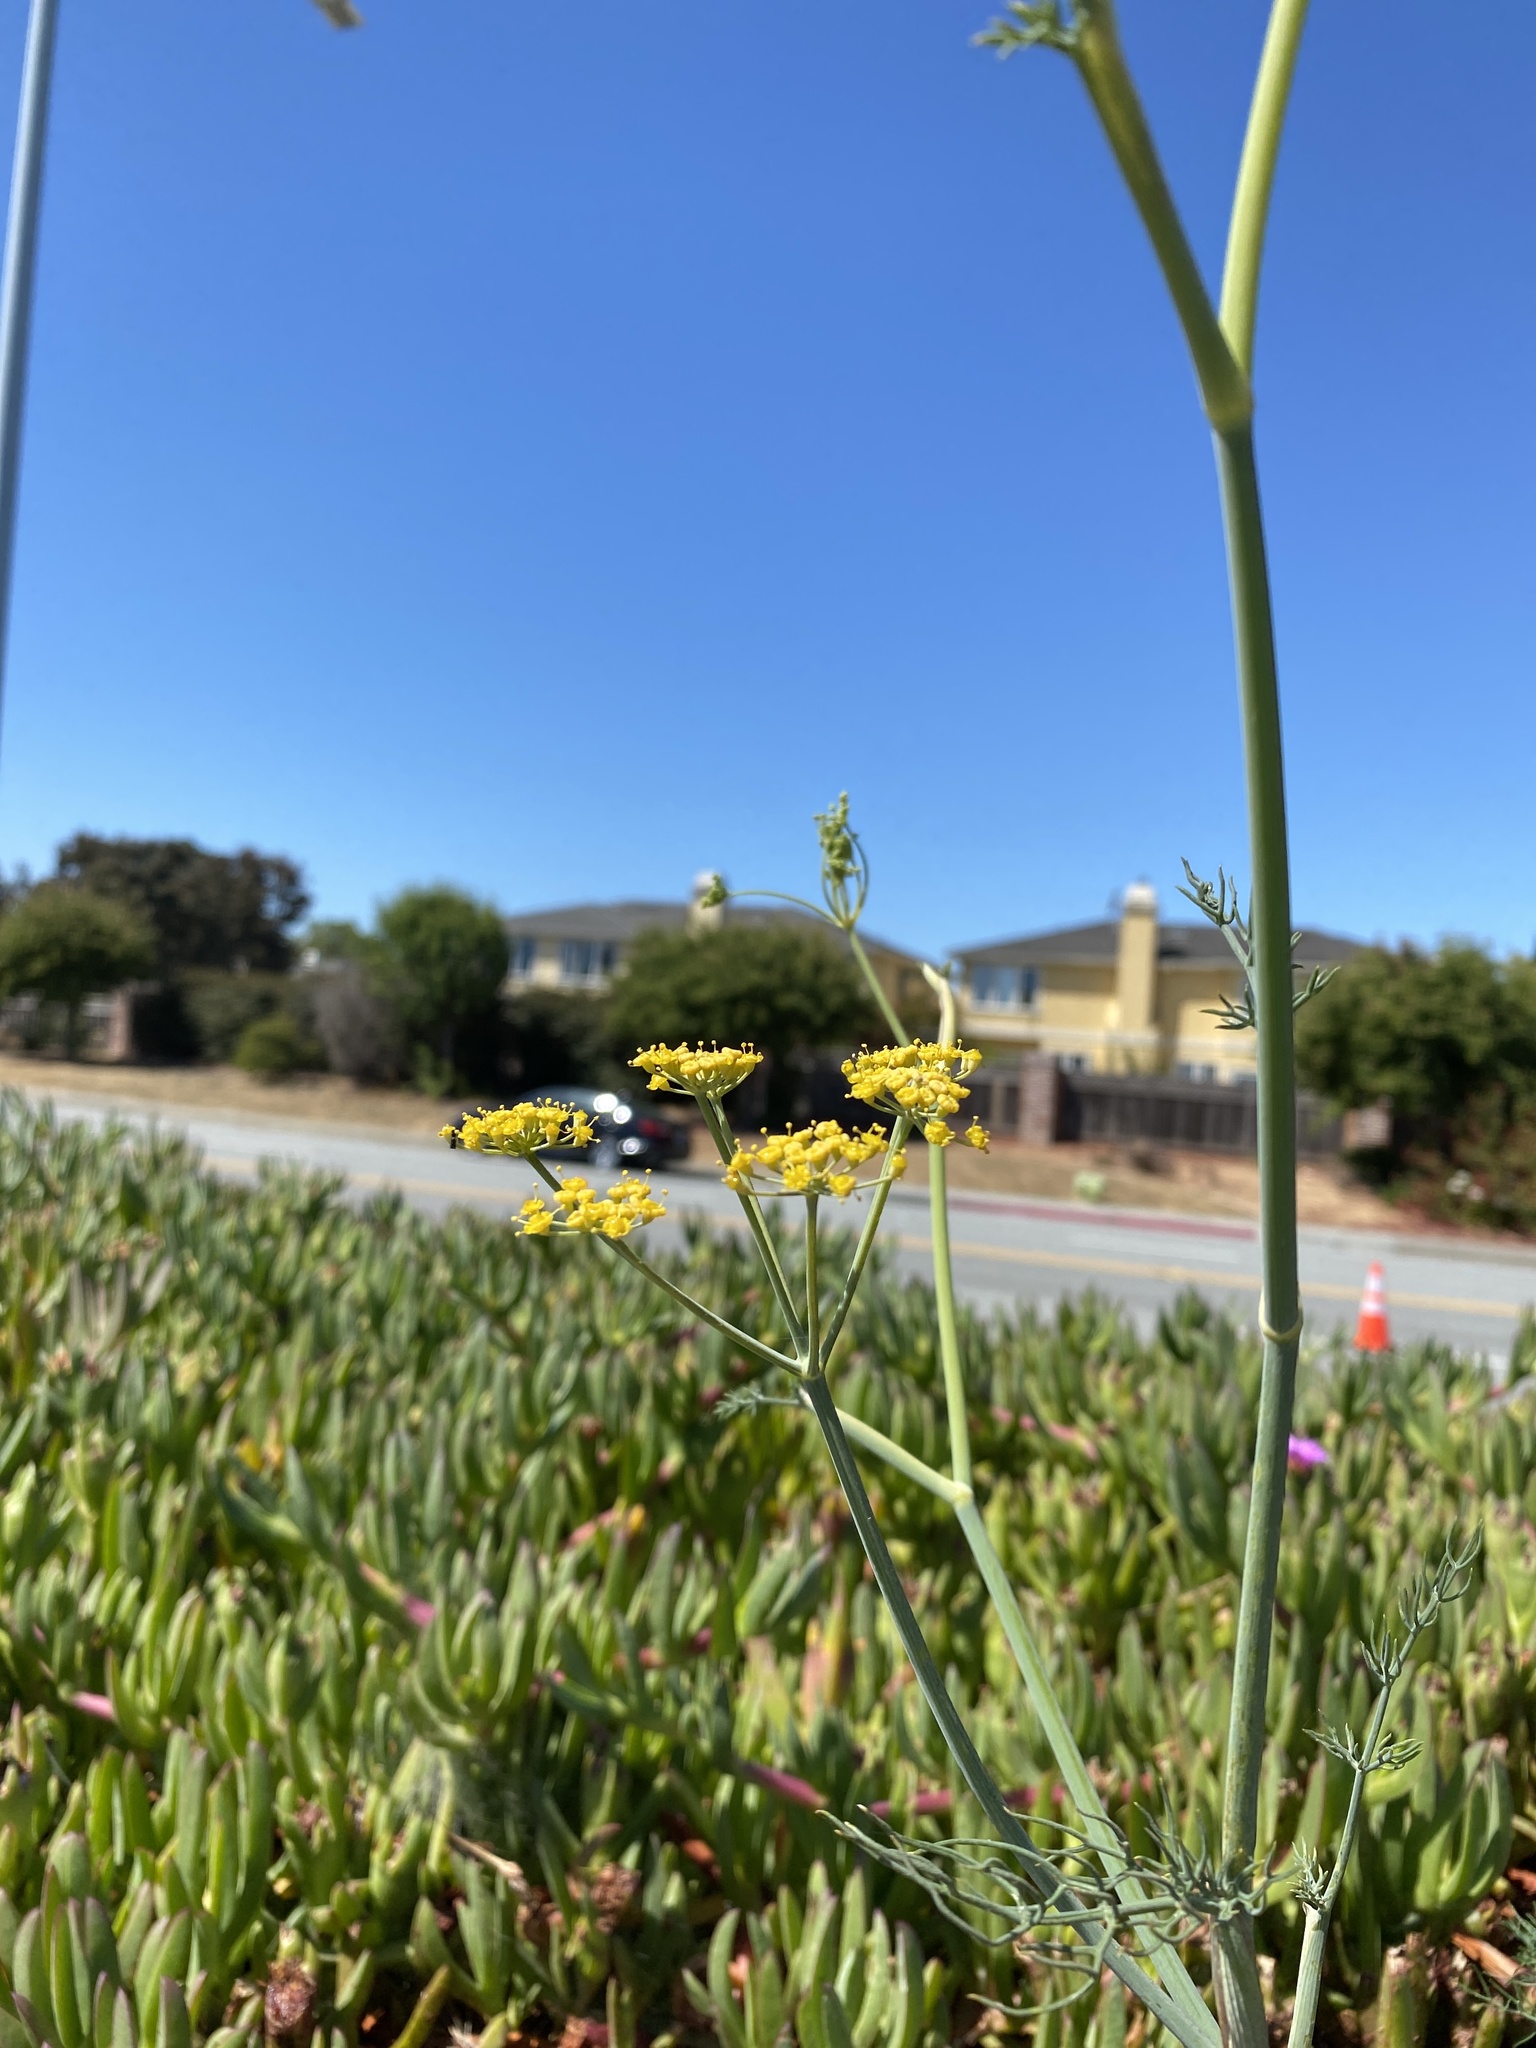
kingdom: Plantae
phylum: Tracheophyta
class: Magnoliopsida
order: Apiales
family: Apiaceae
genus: Foeniculum
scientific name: Foeniculum vulgare
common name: Fennel
